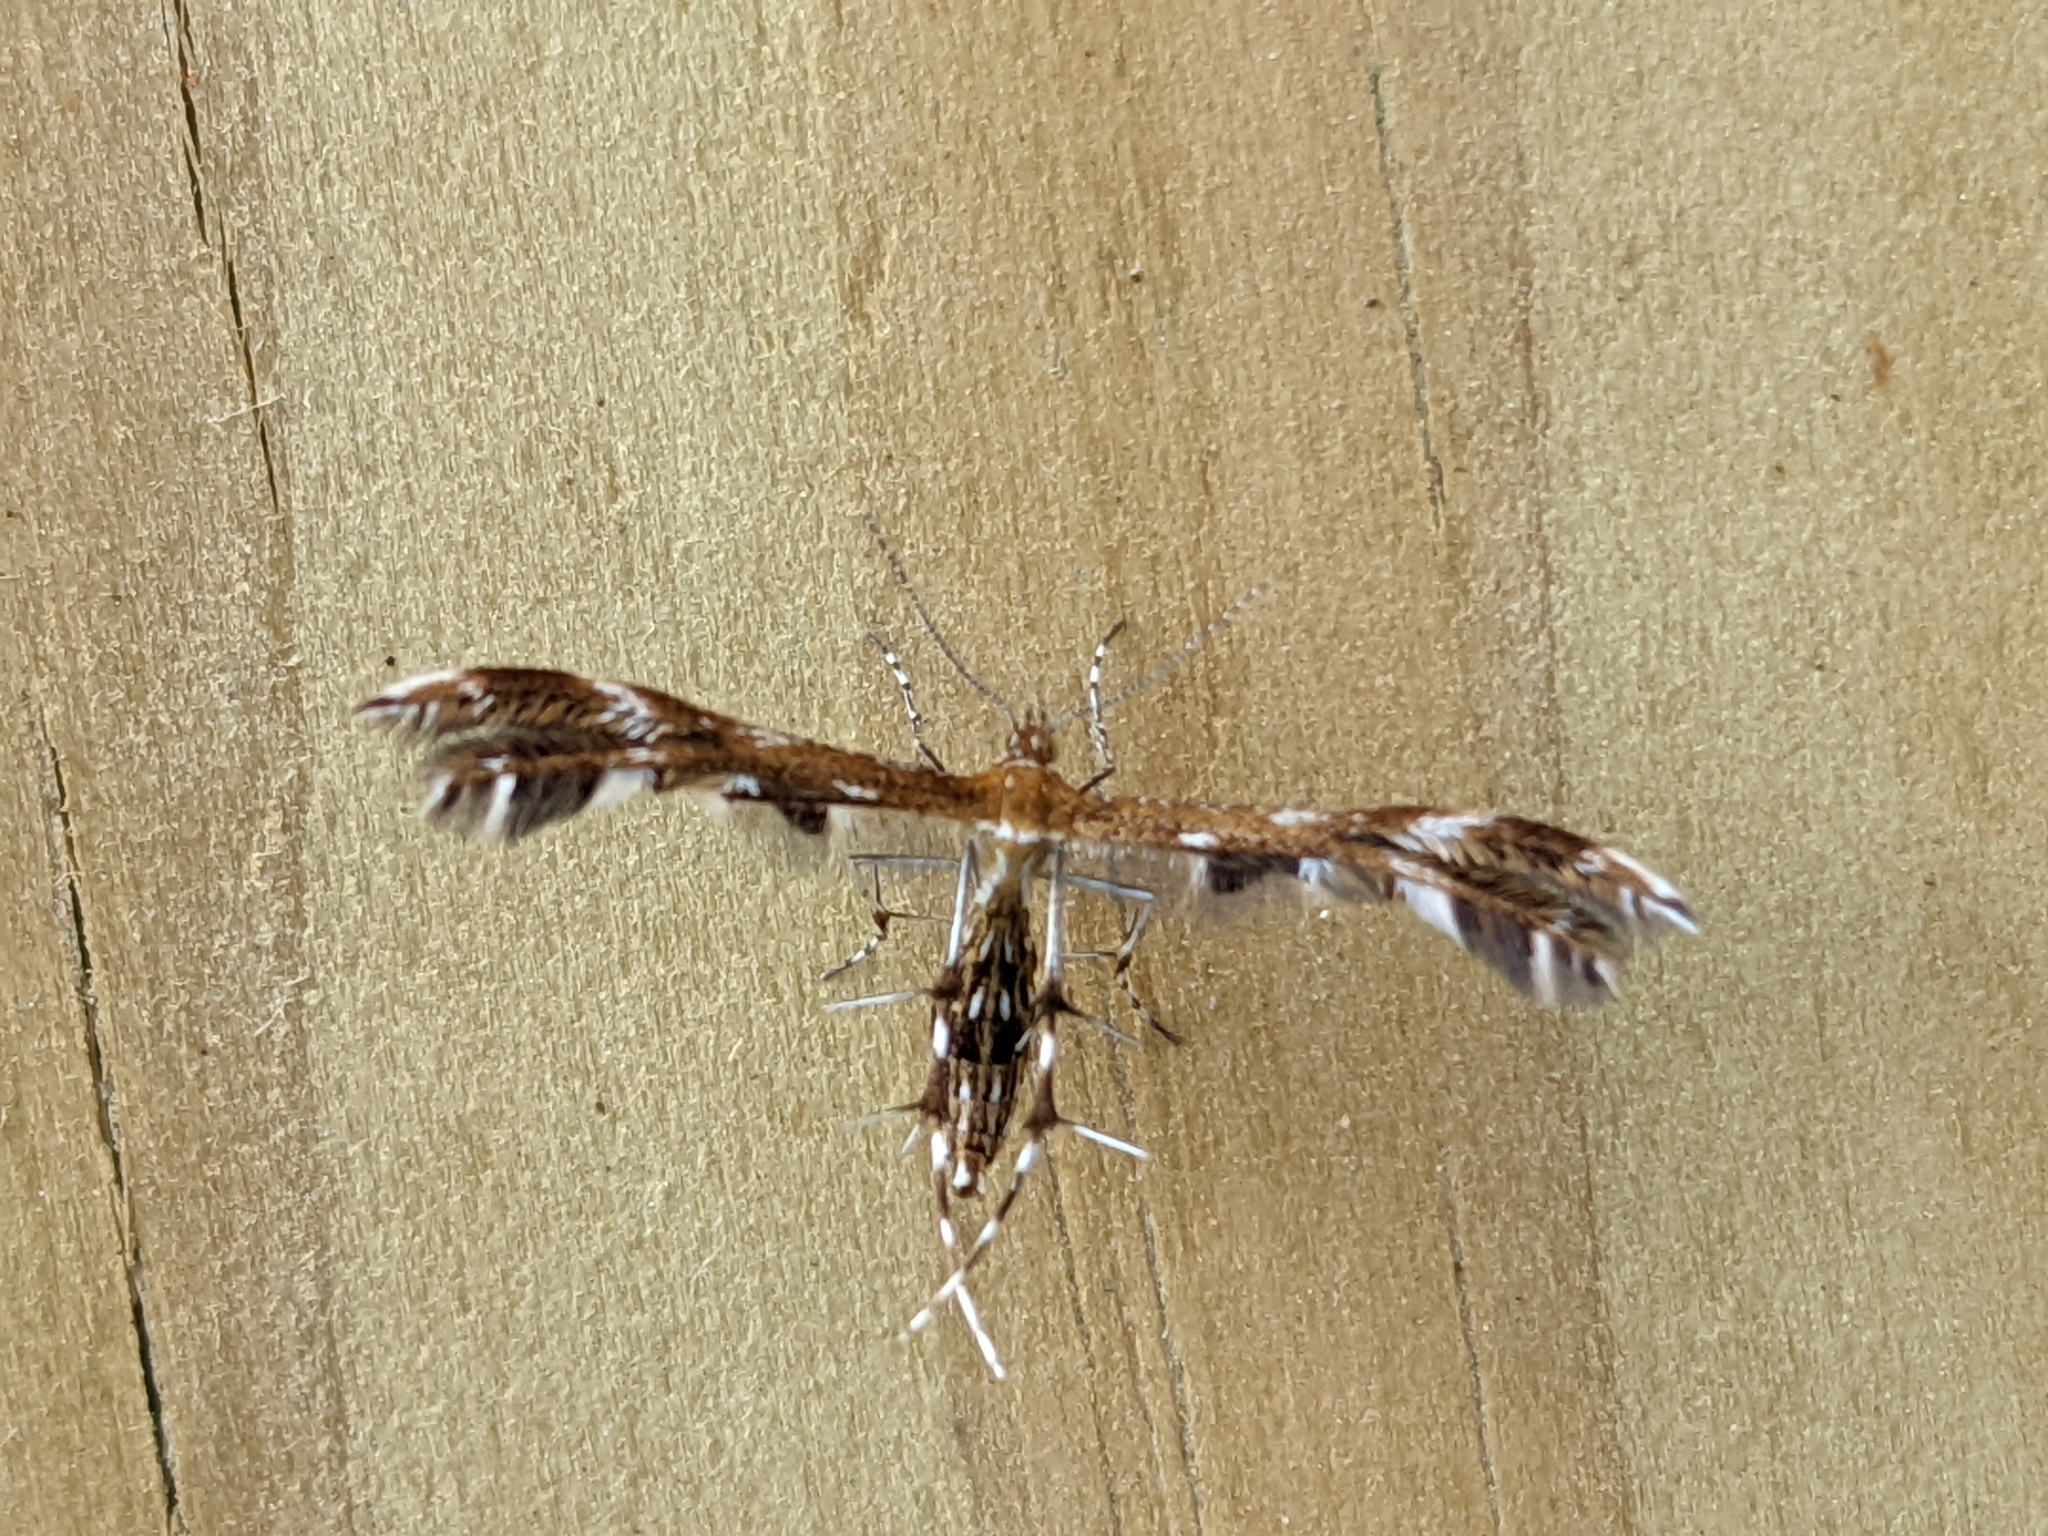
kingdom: Animalia
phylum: Arthropoda
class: Insecta
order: Lepidoptera
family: Pterophoridae
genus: Dejongia
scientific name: Dejongia lobidactylus
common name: Lobed plume moth
